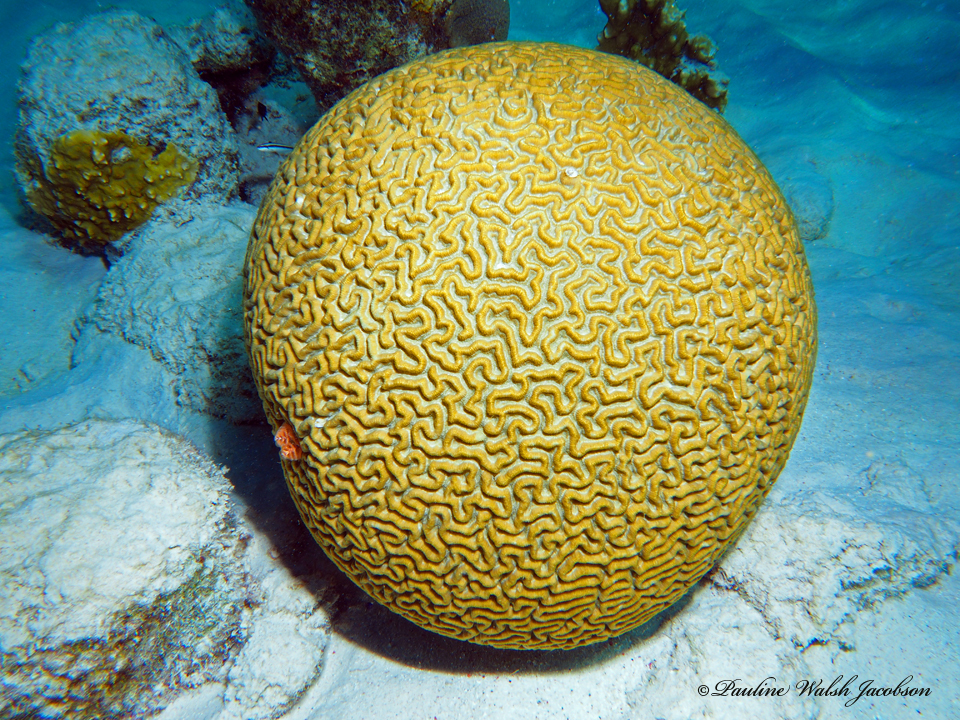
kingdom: Animalia
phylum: Cnidaria
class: Anthozoa
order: Scleractinia
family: Faviidae
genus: Pseudodiploria
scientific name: Pseudodiploria strigosa
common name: Symmetrical brain coral
